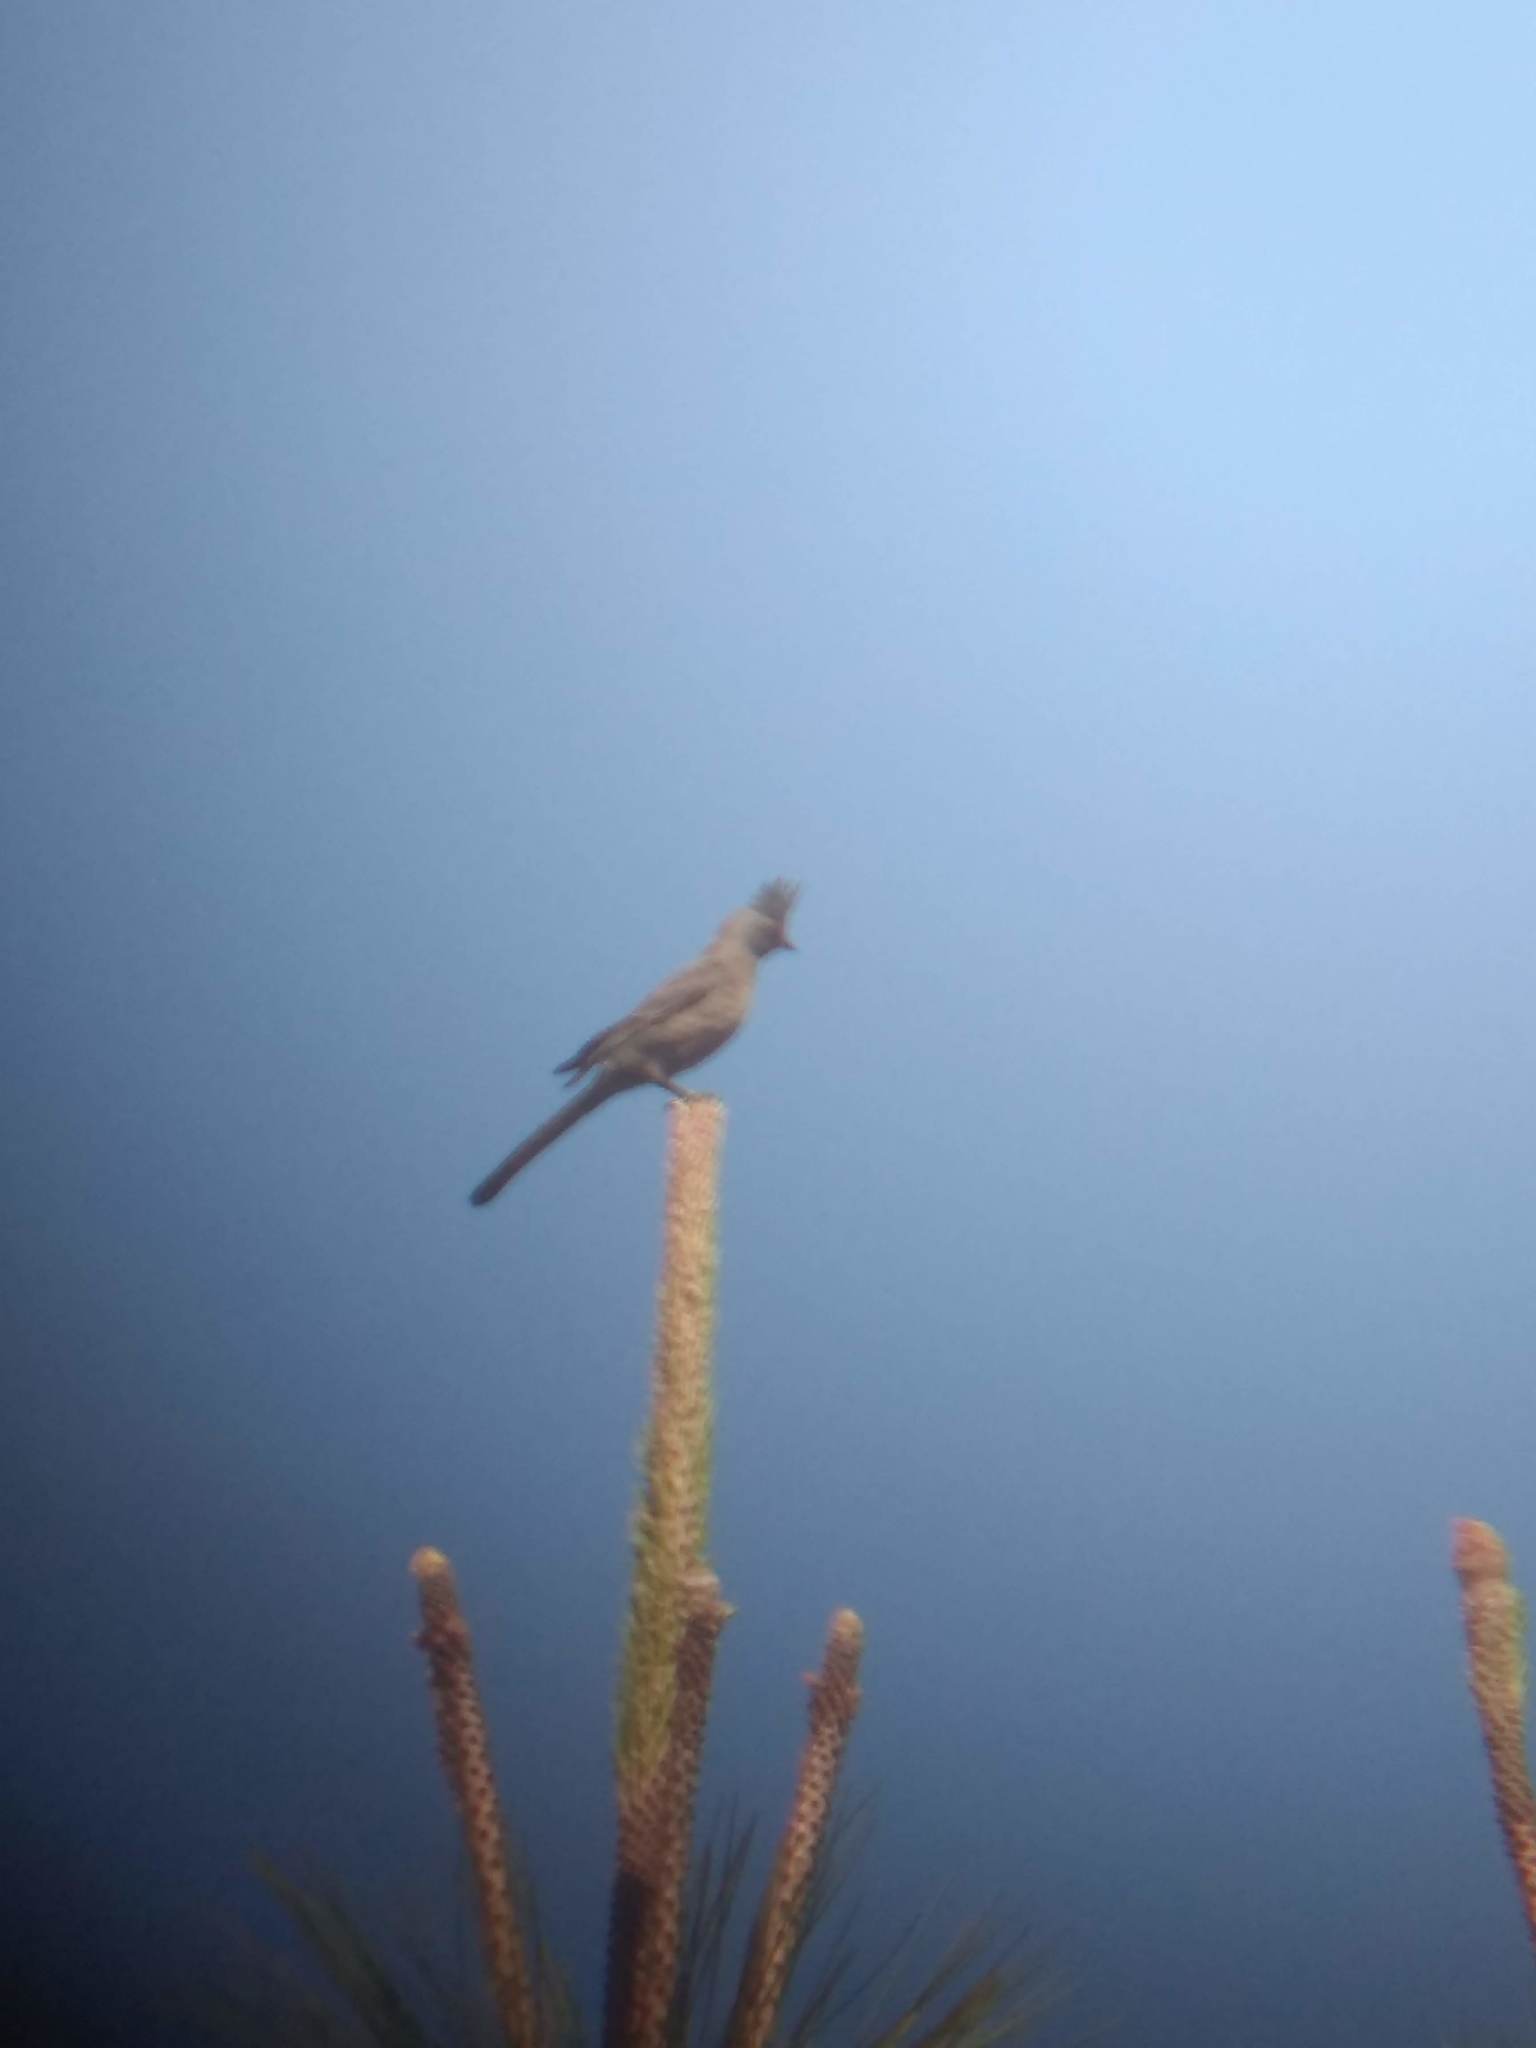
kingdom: Animalia
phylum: Chordata
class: Aves
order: Passeriformes
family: Ptilogonatidae
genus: Phainopepla
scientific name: Phainopepla nitens
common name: Phainopepla
